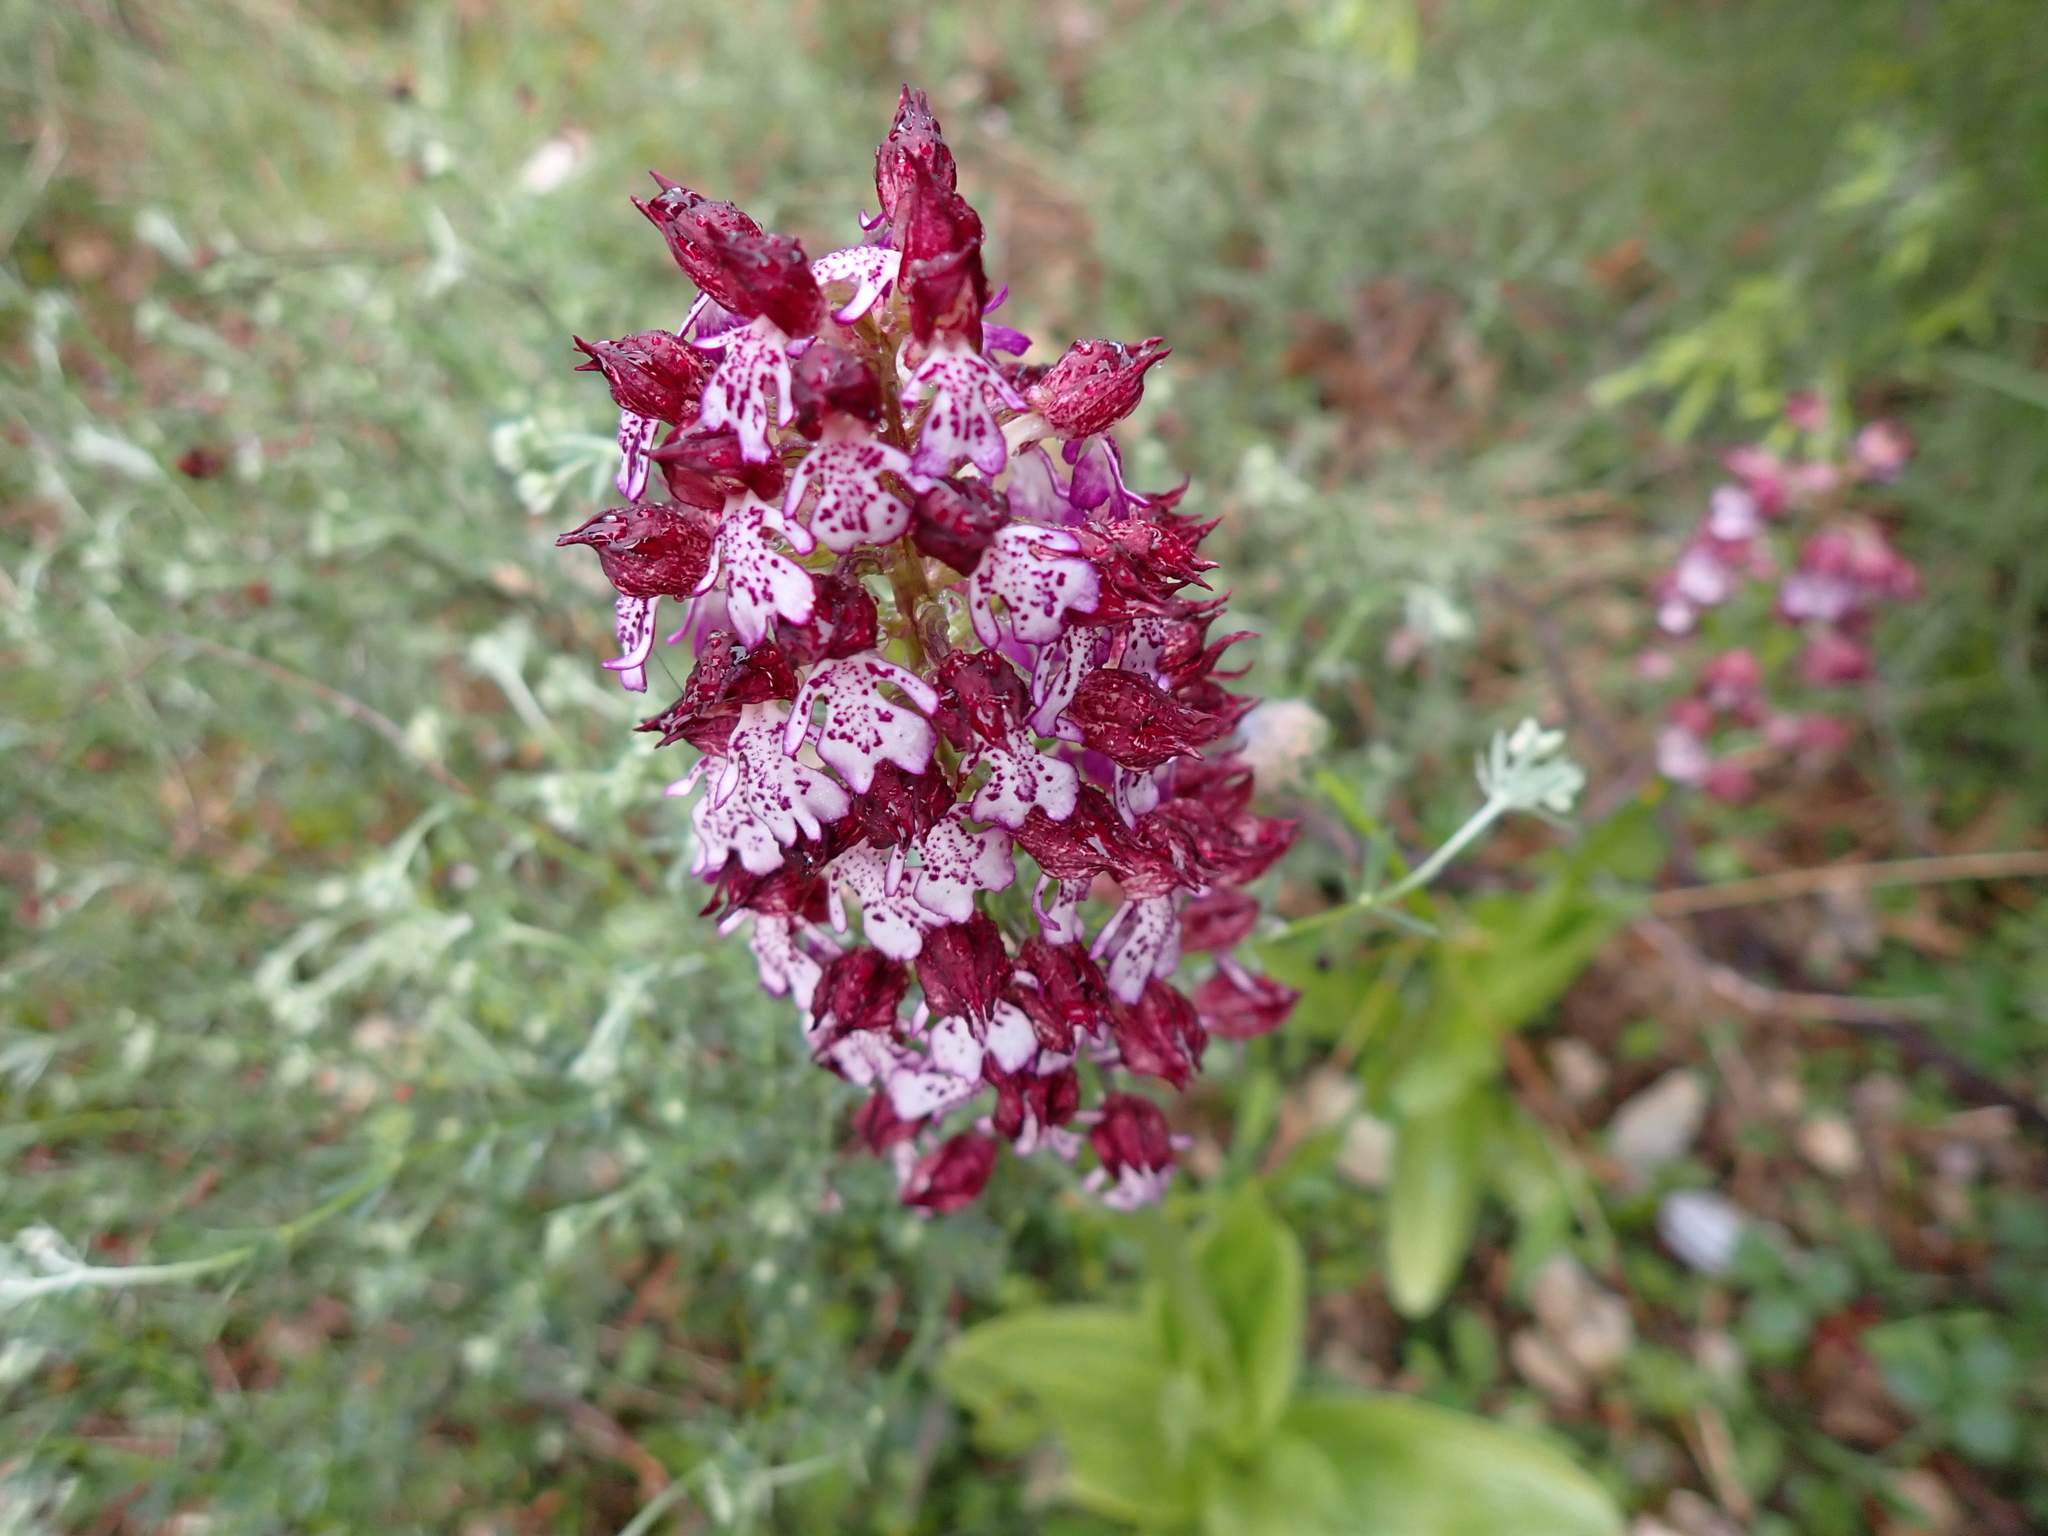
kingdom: Plantae
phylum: Tracheophyta
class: Liliopsida
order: Asparagales
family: Orchidaceae
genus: Orchis
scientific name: Orchis purpurea
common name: Lady orchid
